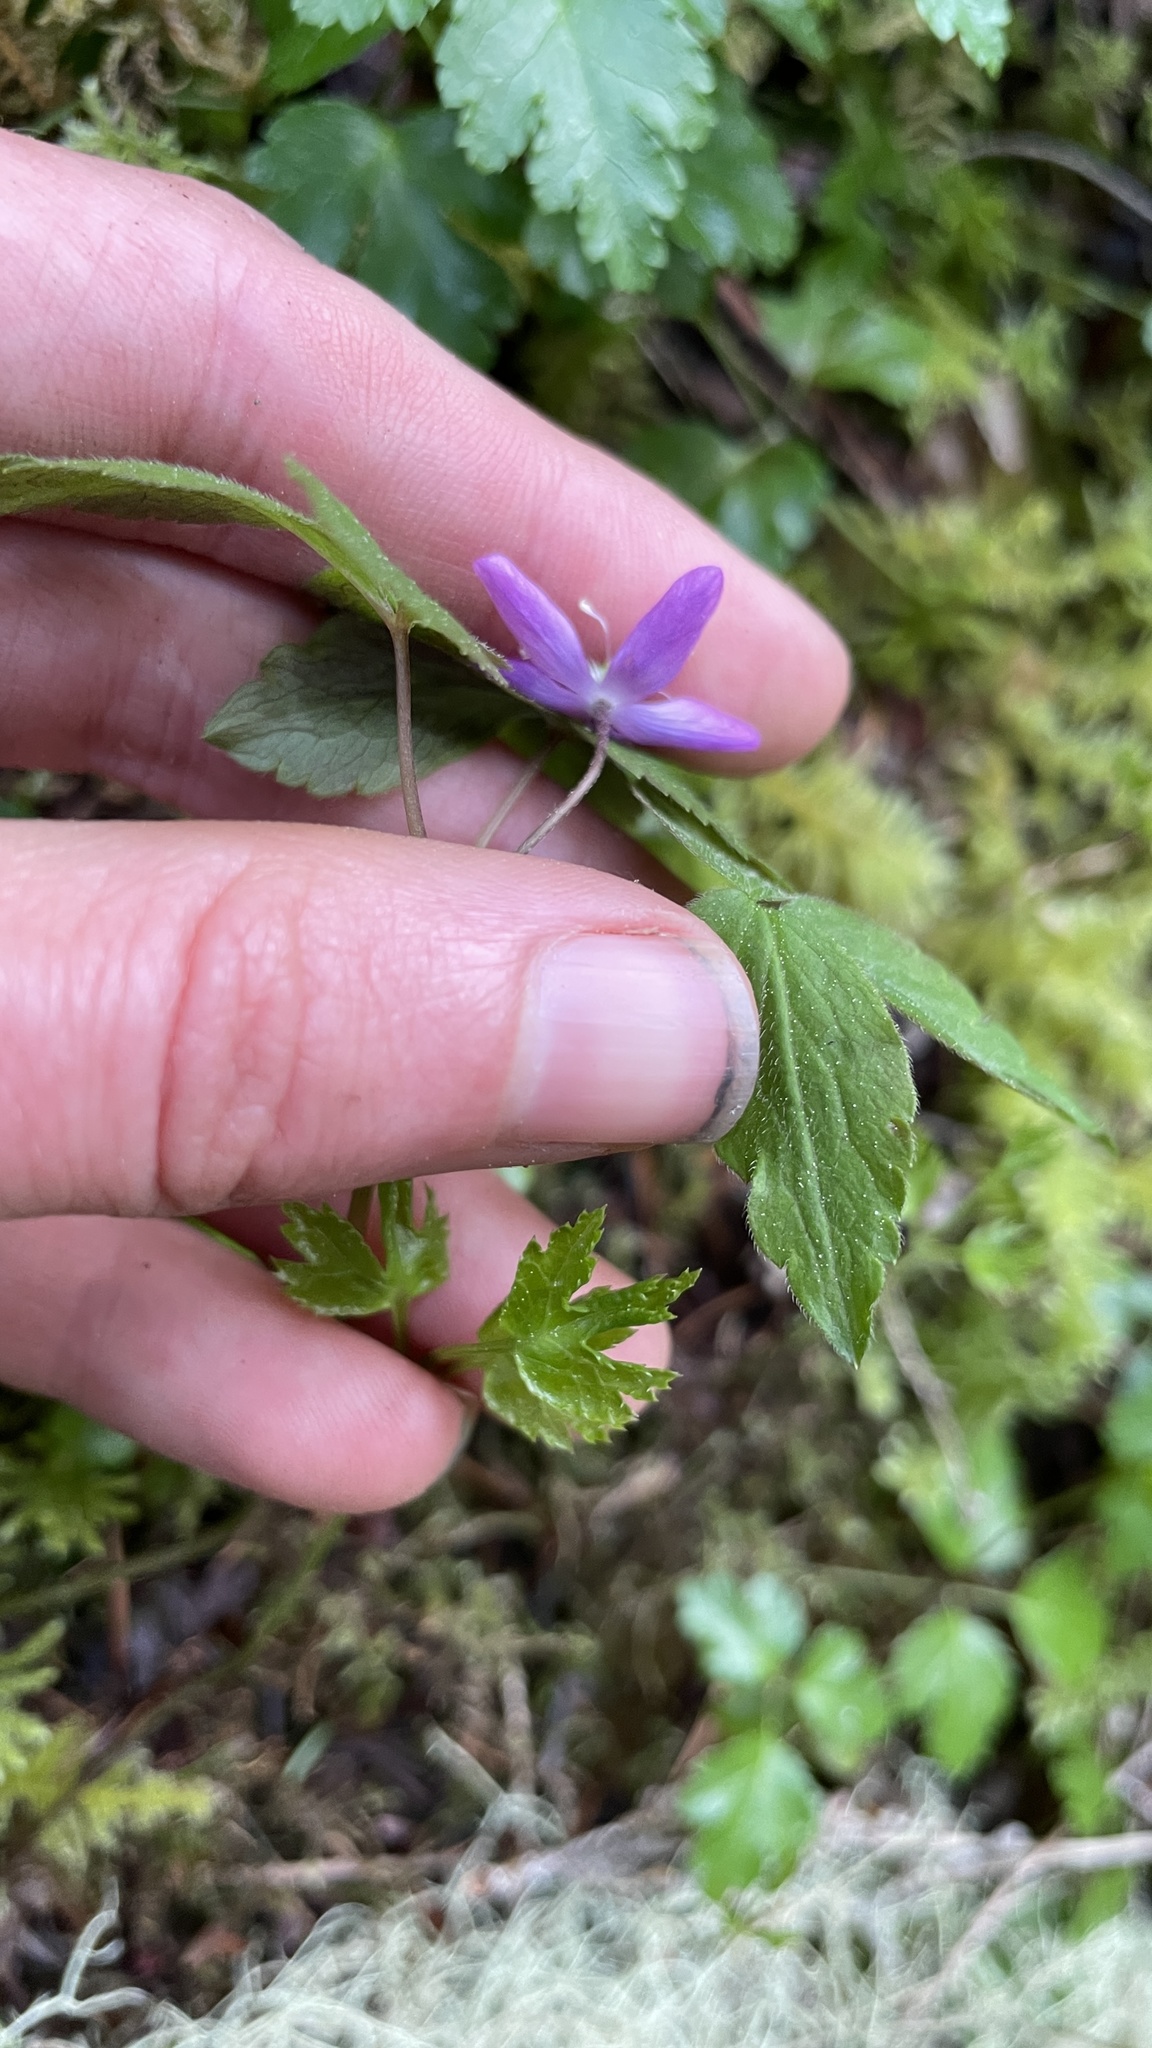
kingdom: Plantae
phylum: Tracheophyta
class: Magnoliopsida
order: Ranunculales
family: Ranunculaceae
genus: Anemone
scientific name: Anemone
